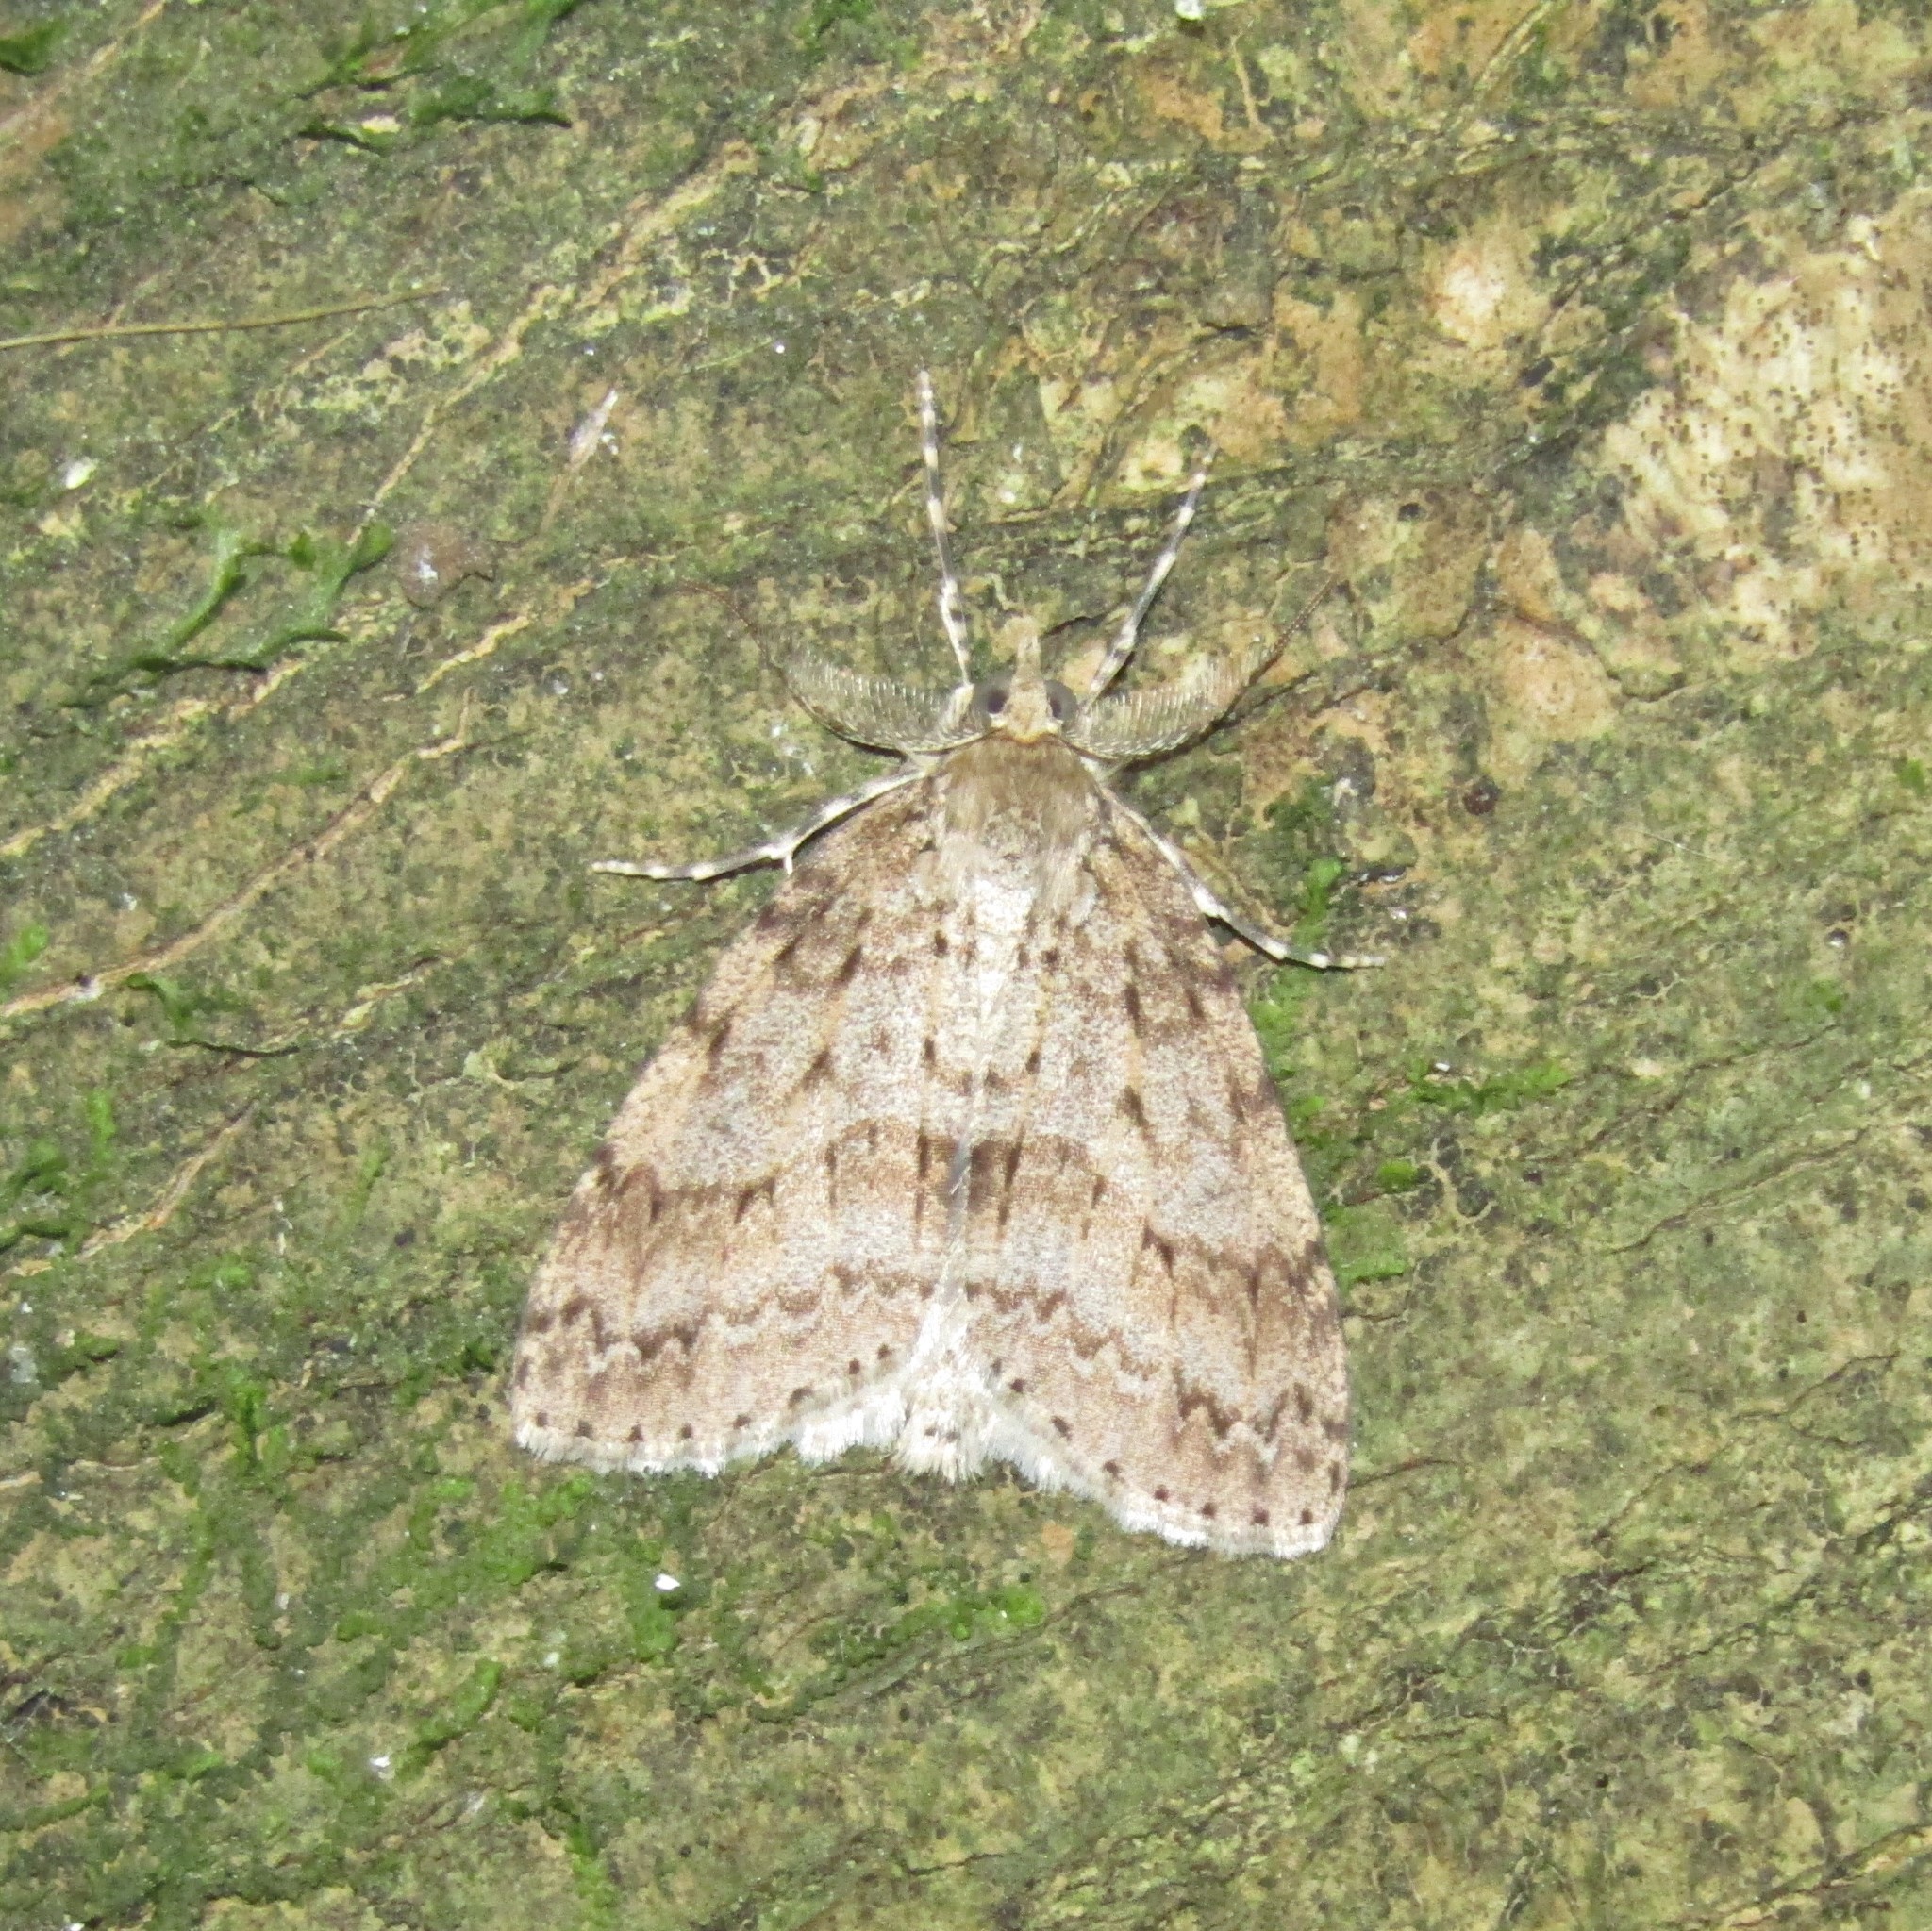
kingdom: Animalia
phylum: Arthropoda
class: Insecta
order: Lepidoptera
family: Geometridae
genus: Pseudocoremia
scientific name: Pseudocoremia fenerata
